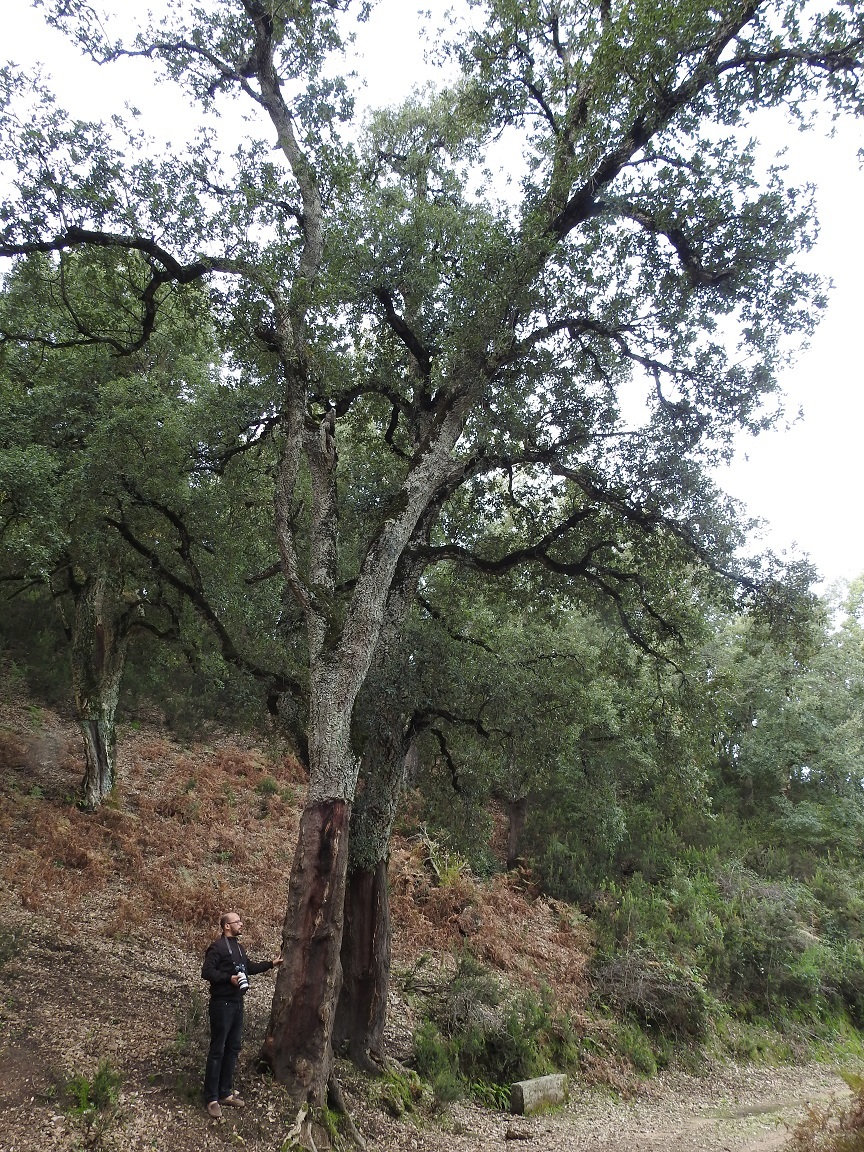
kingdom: Plantae
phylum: Tracheophyta
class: Magnoliopsida
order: Fagales
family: Fagaceae
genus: Quercus
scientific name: Quercus suber
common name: Cork oak
